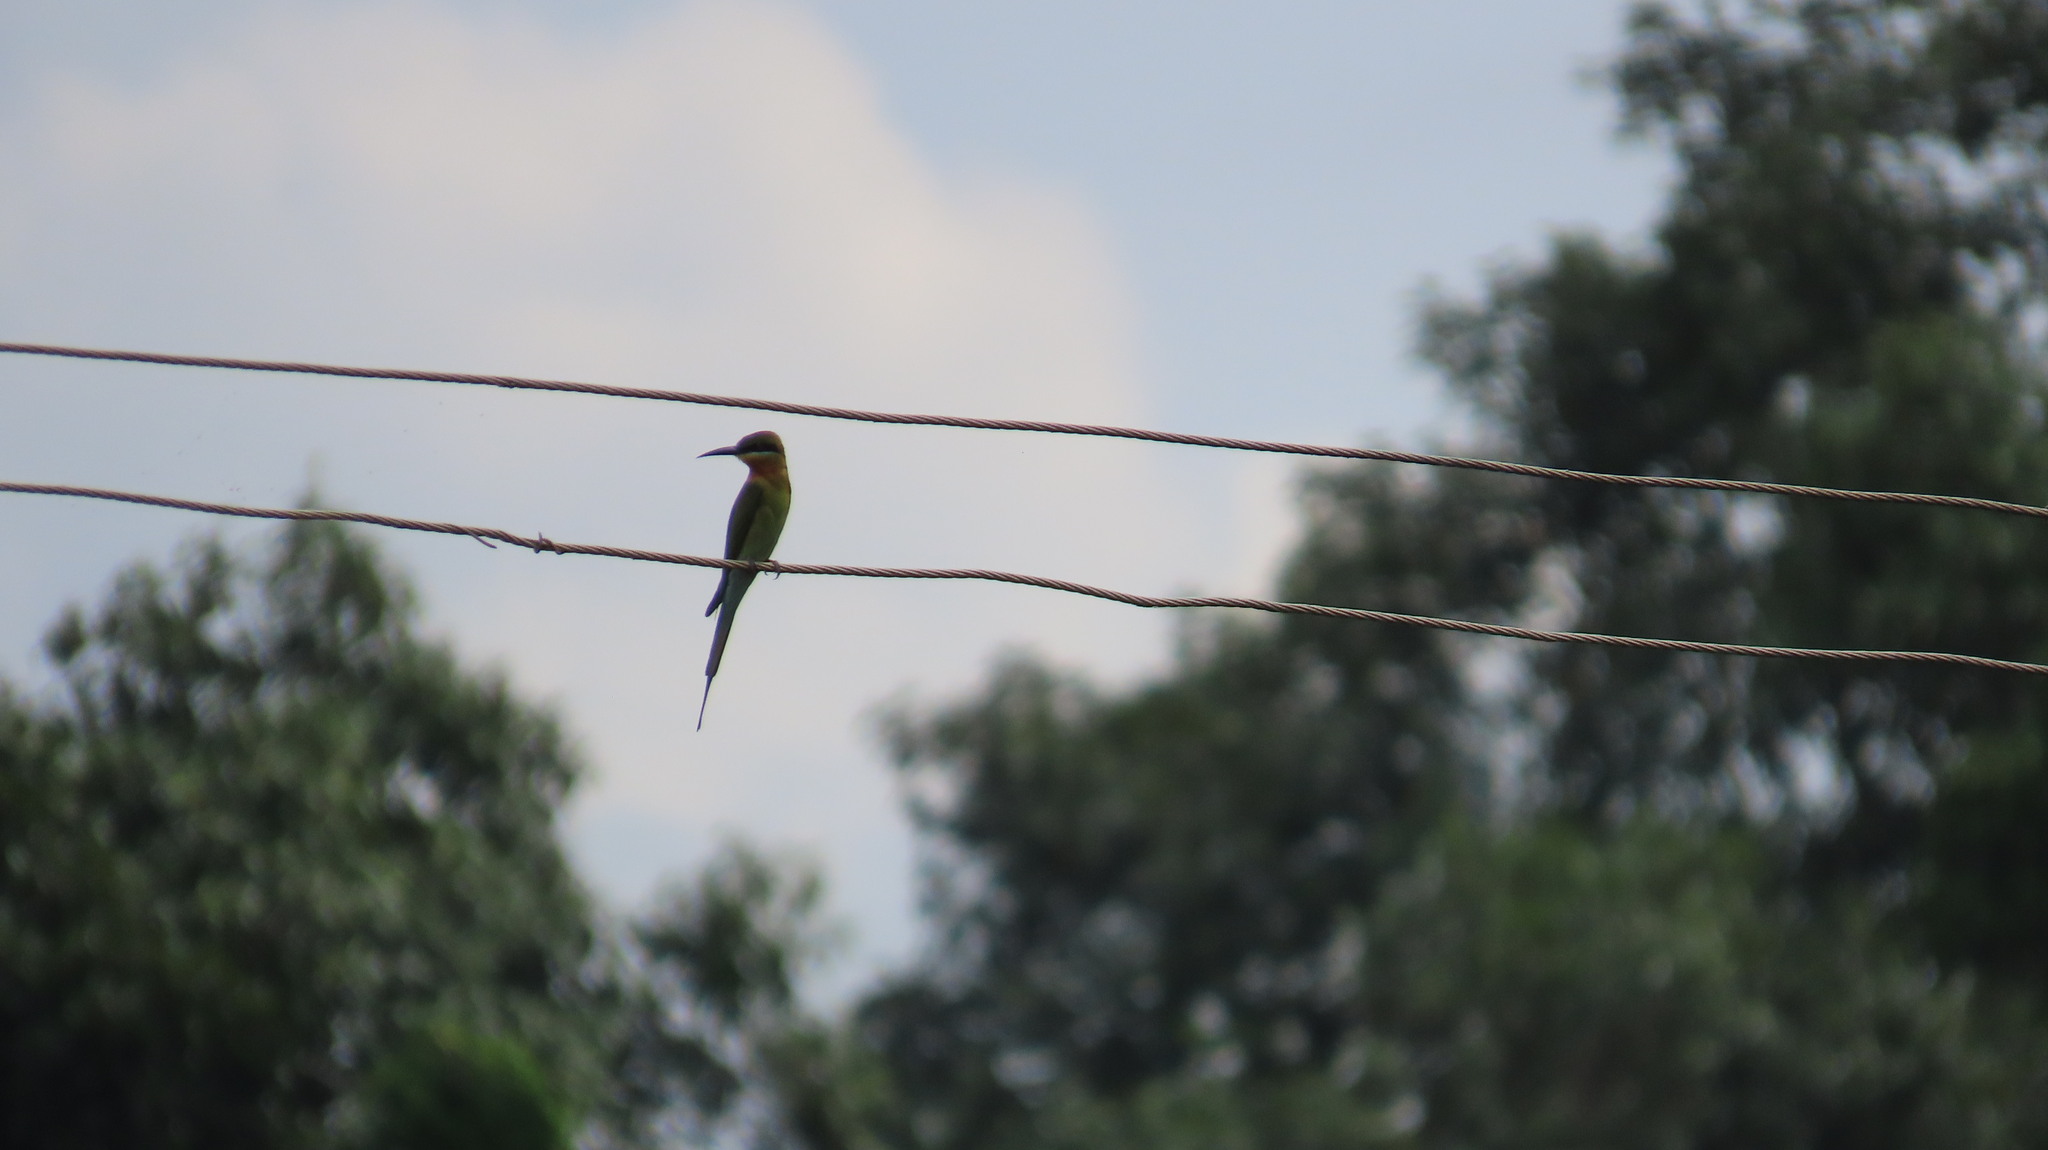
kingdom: Animalia
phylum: Chordata
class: Aves
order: Coraciiformes
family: Meropidae
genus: Merops
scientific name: Merops philippinus
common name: Blue-tailed bee-eater
